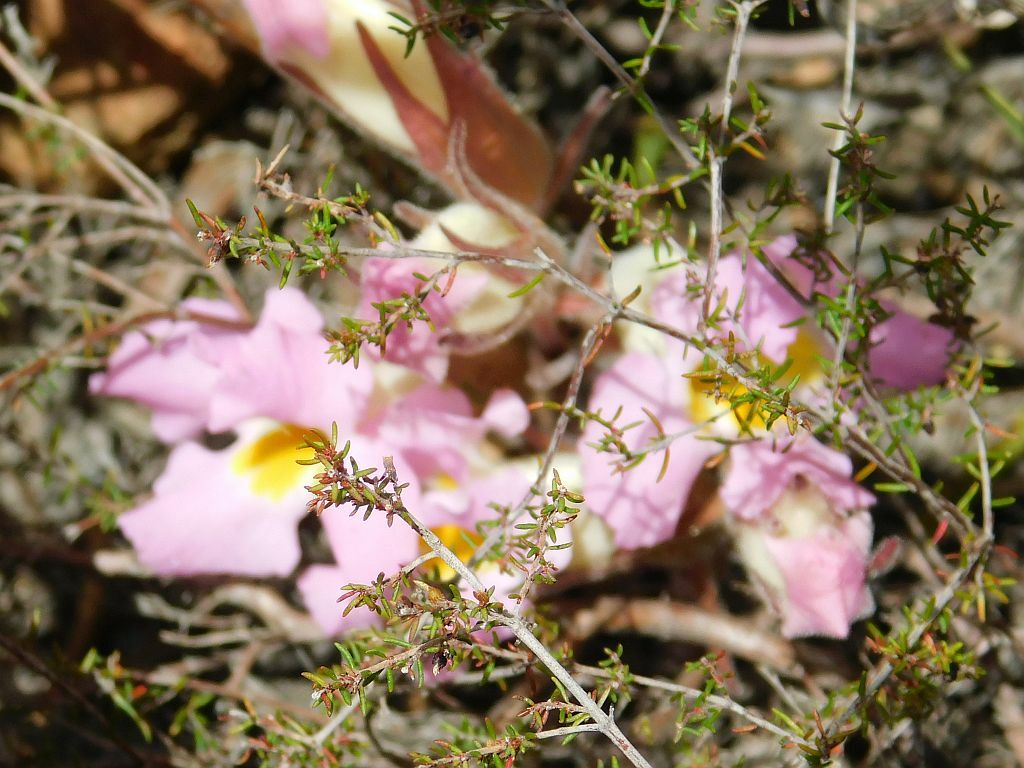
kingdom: Plantae
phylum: Tracheophyta
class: Magnoliopsida
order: Lamiales
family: Orobanchaceae
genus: Harveya
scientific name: Harveya purpurea
